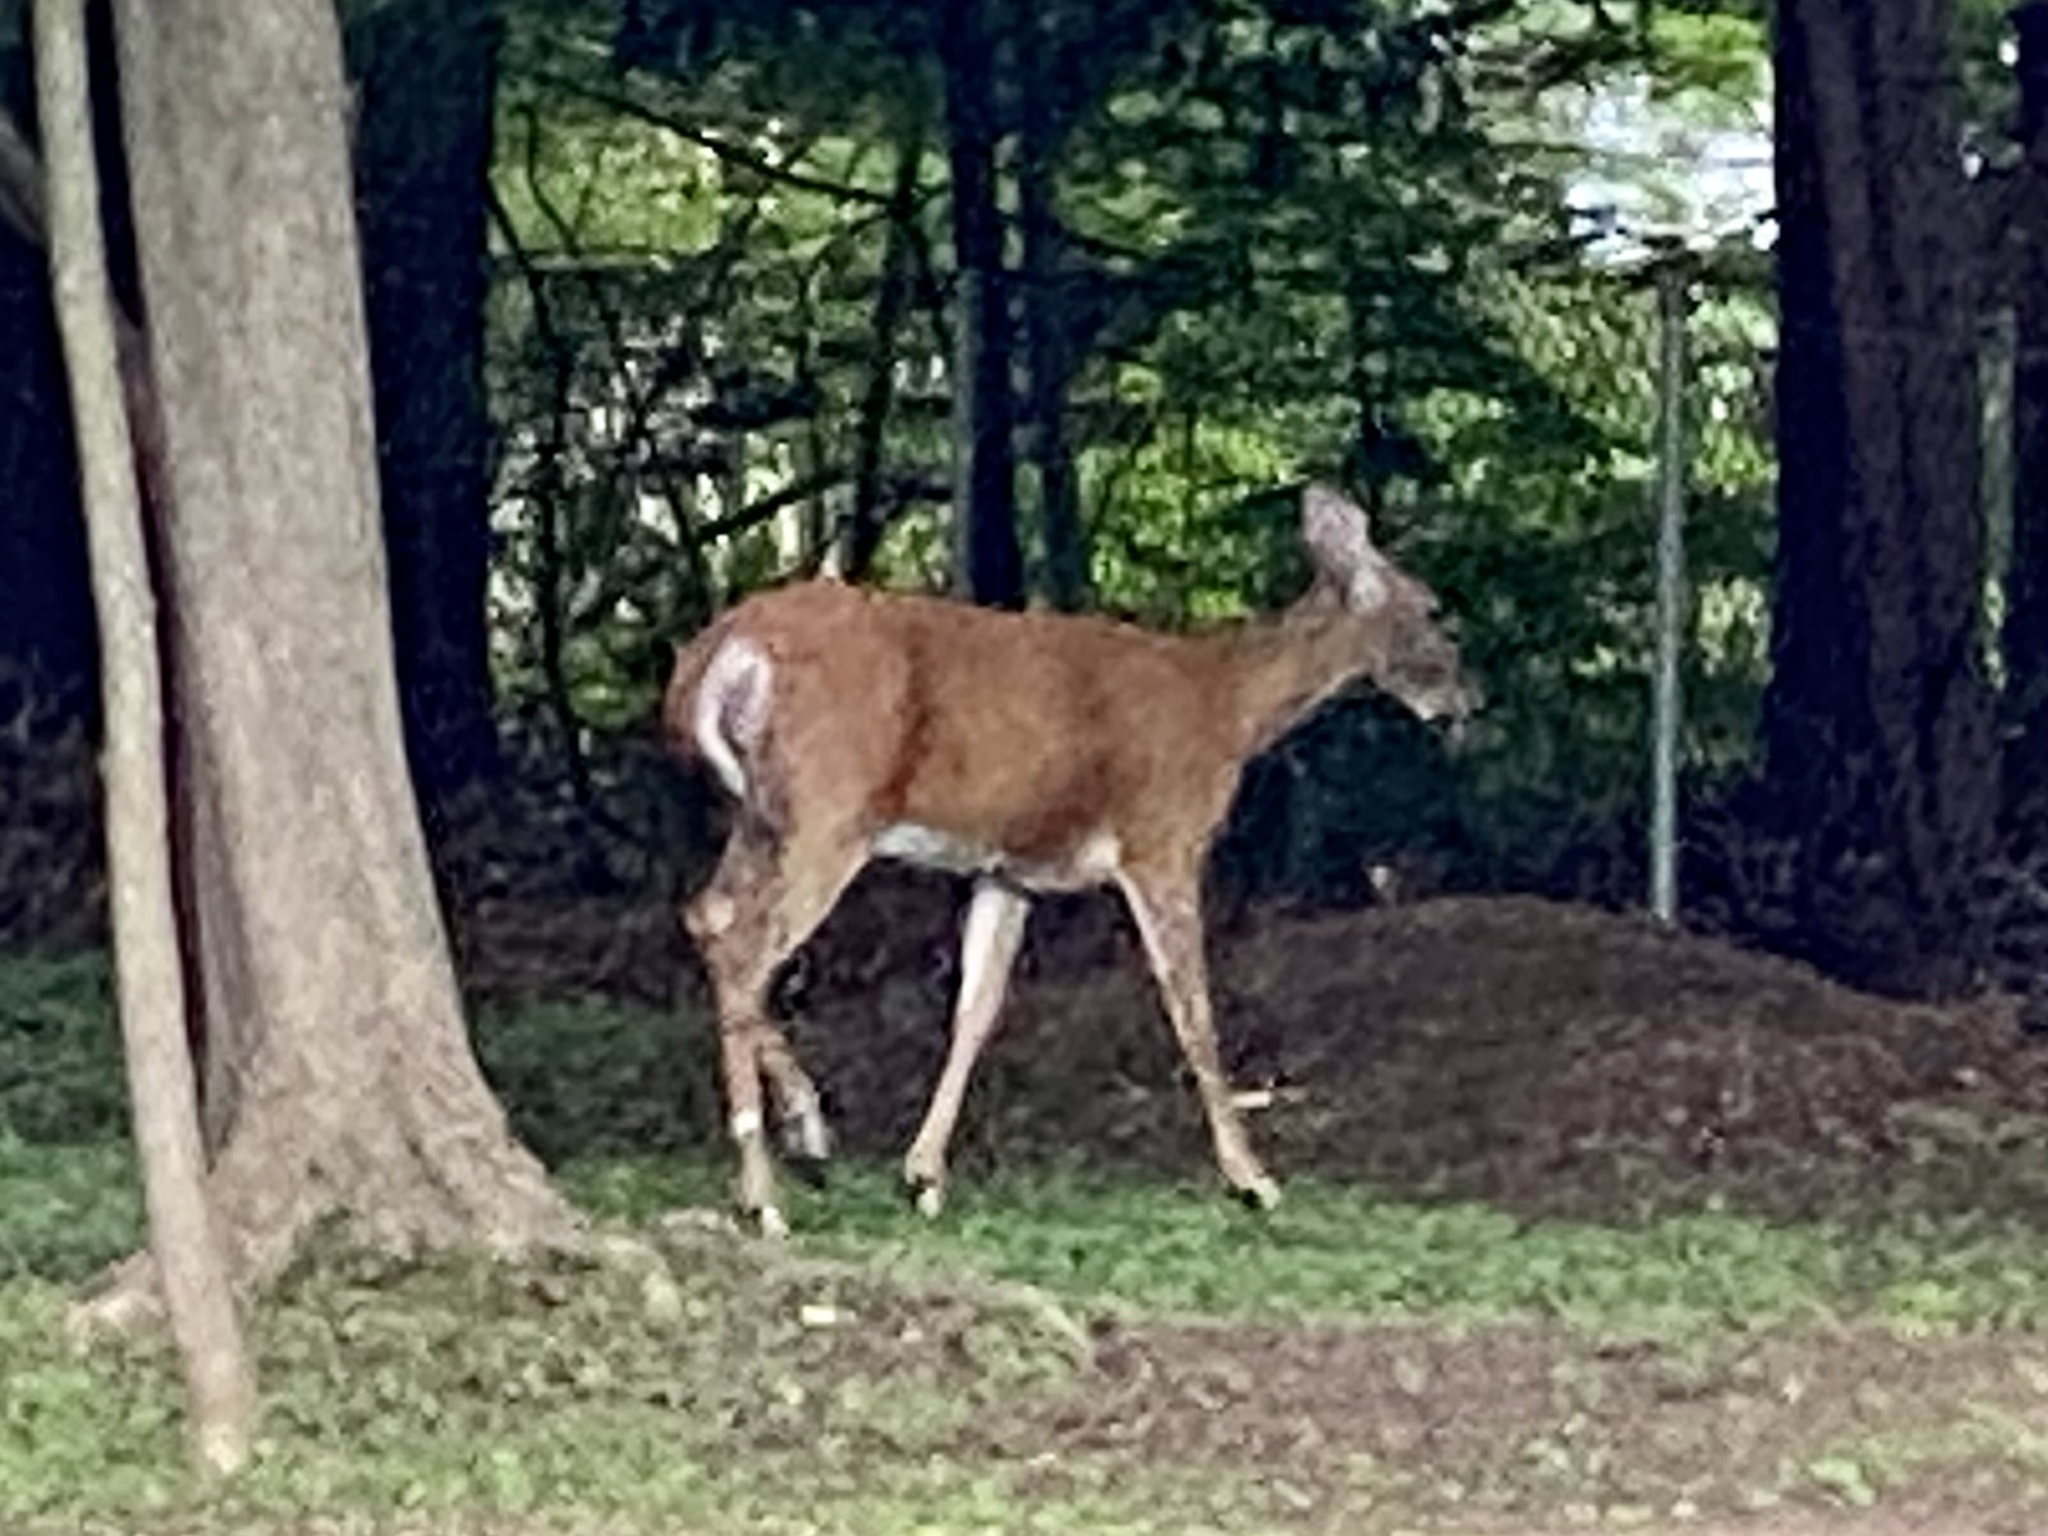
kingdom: Animalia
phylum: Chordata
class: Mammalia
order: Artiodactyla
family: Cervidae
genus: Odocoileus
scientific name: Odocoileus virginianus
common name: White-tailed deer
